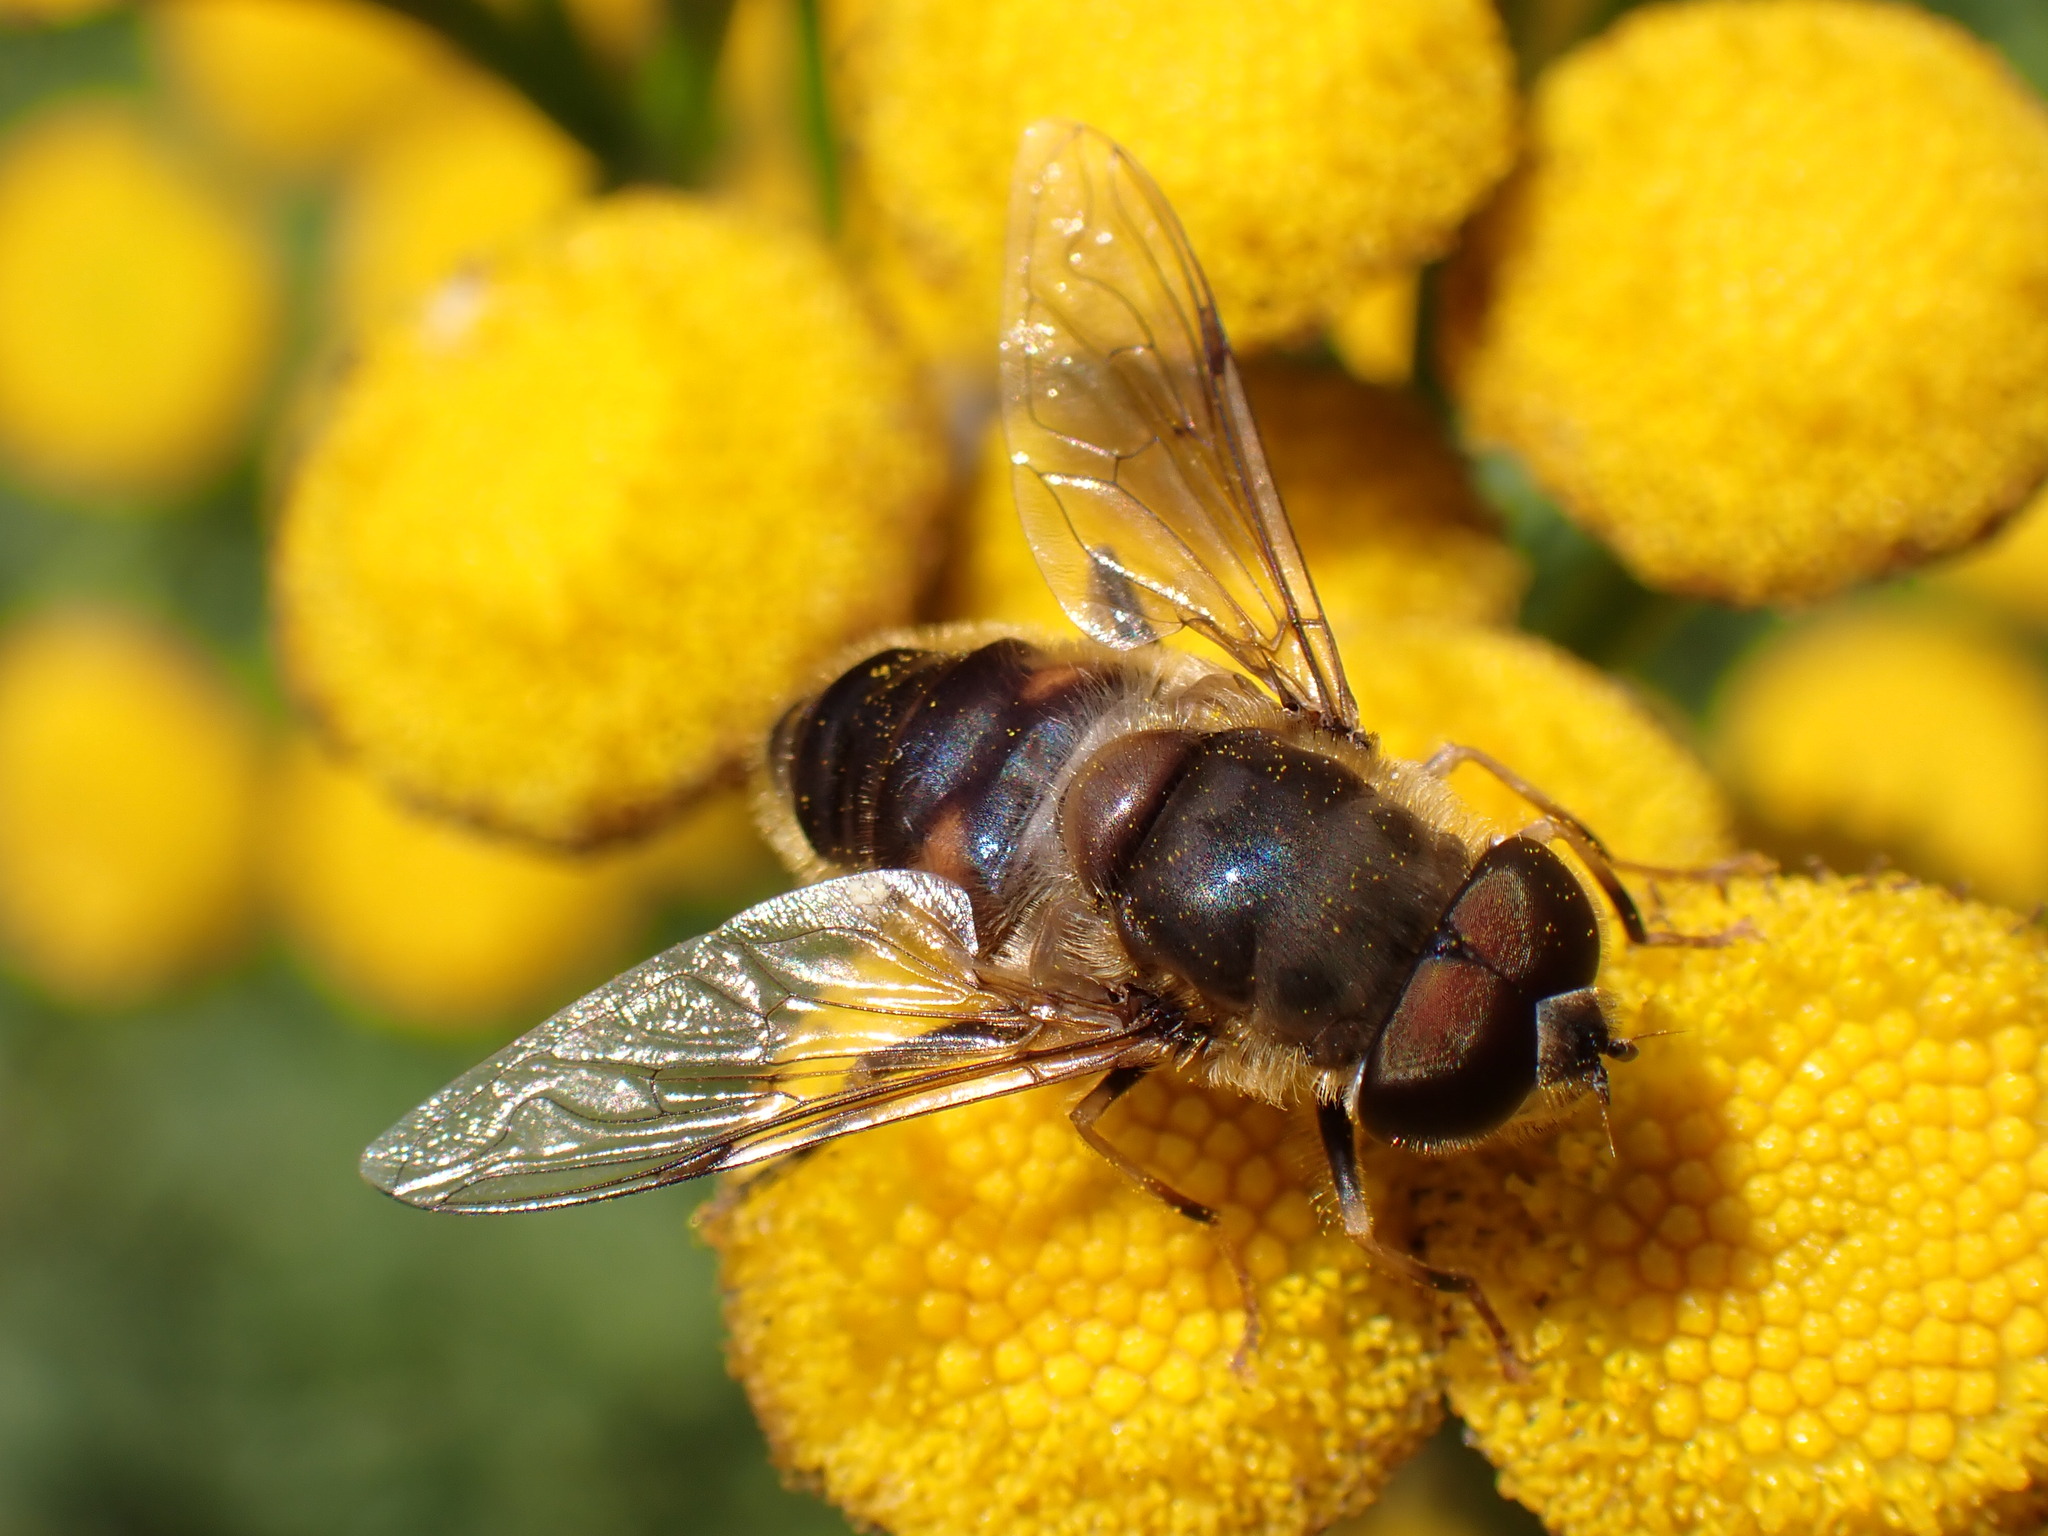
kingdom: Animalia
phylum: Arthropoda
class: Insecta
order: Diptera
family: Syrphidae
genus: Eristalis
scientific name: Eristalis pertinax
